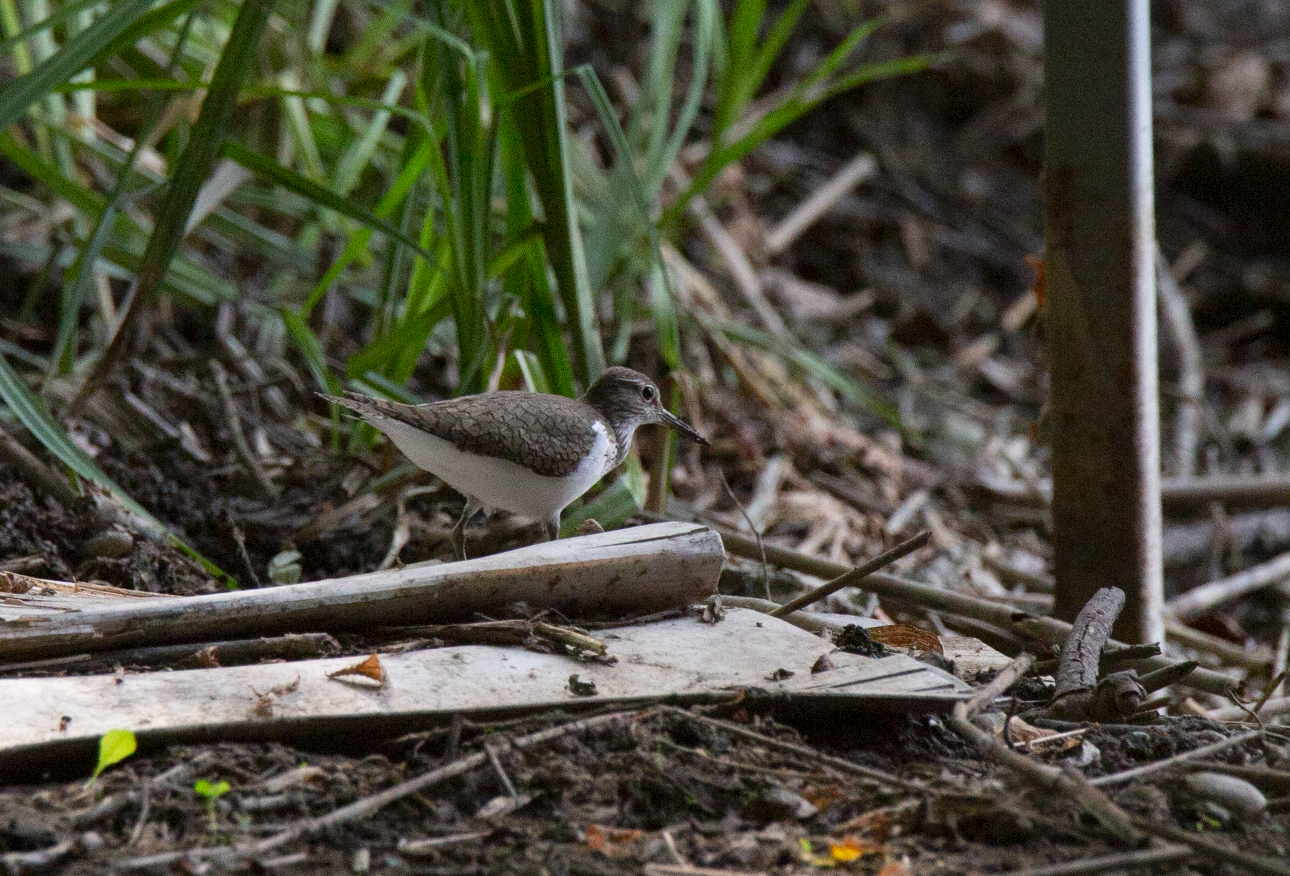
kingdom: Animalia
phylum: Chordata
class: Aves
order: Charadriiformes
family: Scolopacidae
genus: Actitis
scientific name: Actitis hypoleucos
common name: Common sandpiper
